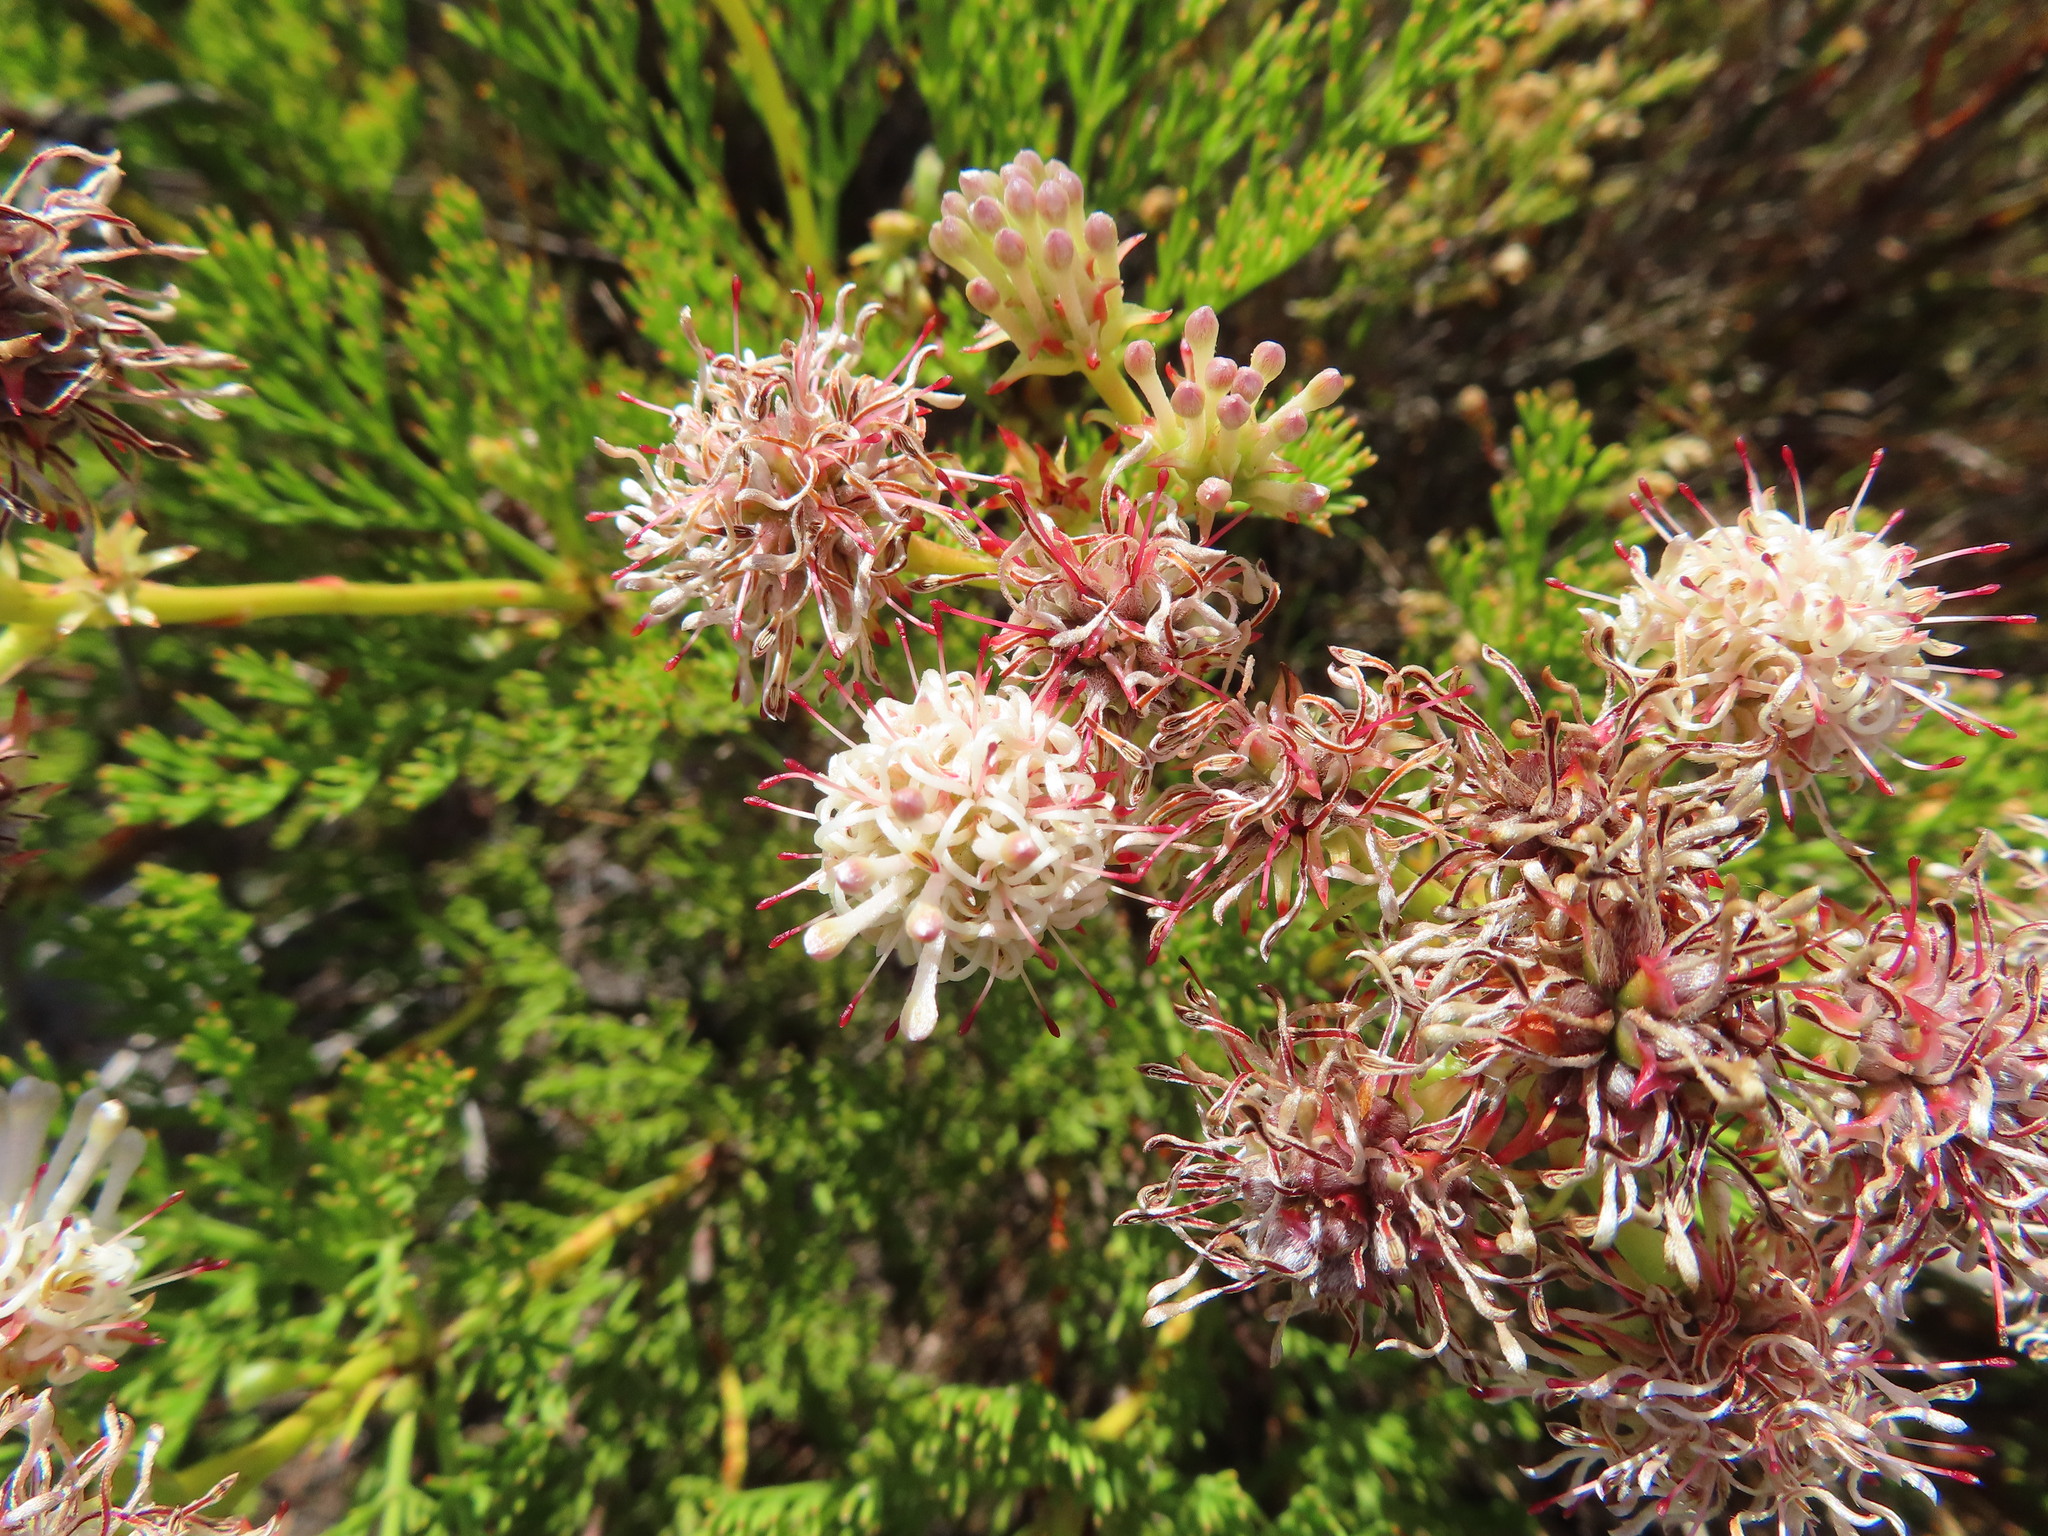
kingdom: Plantae
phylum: Tracheophyta
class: Magnoliopsida
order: Proteales
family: Proteaceae
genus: Serruria
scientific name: Serruria elongata
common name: Long-stalk spiderhead
